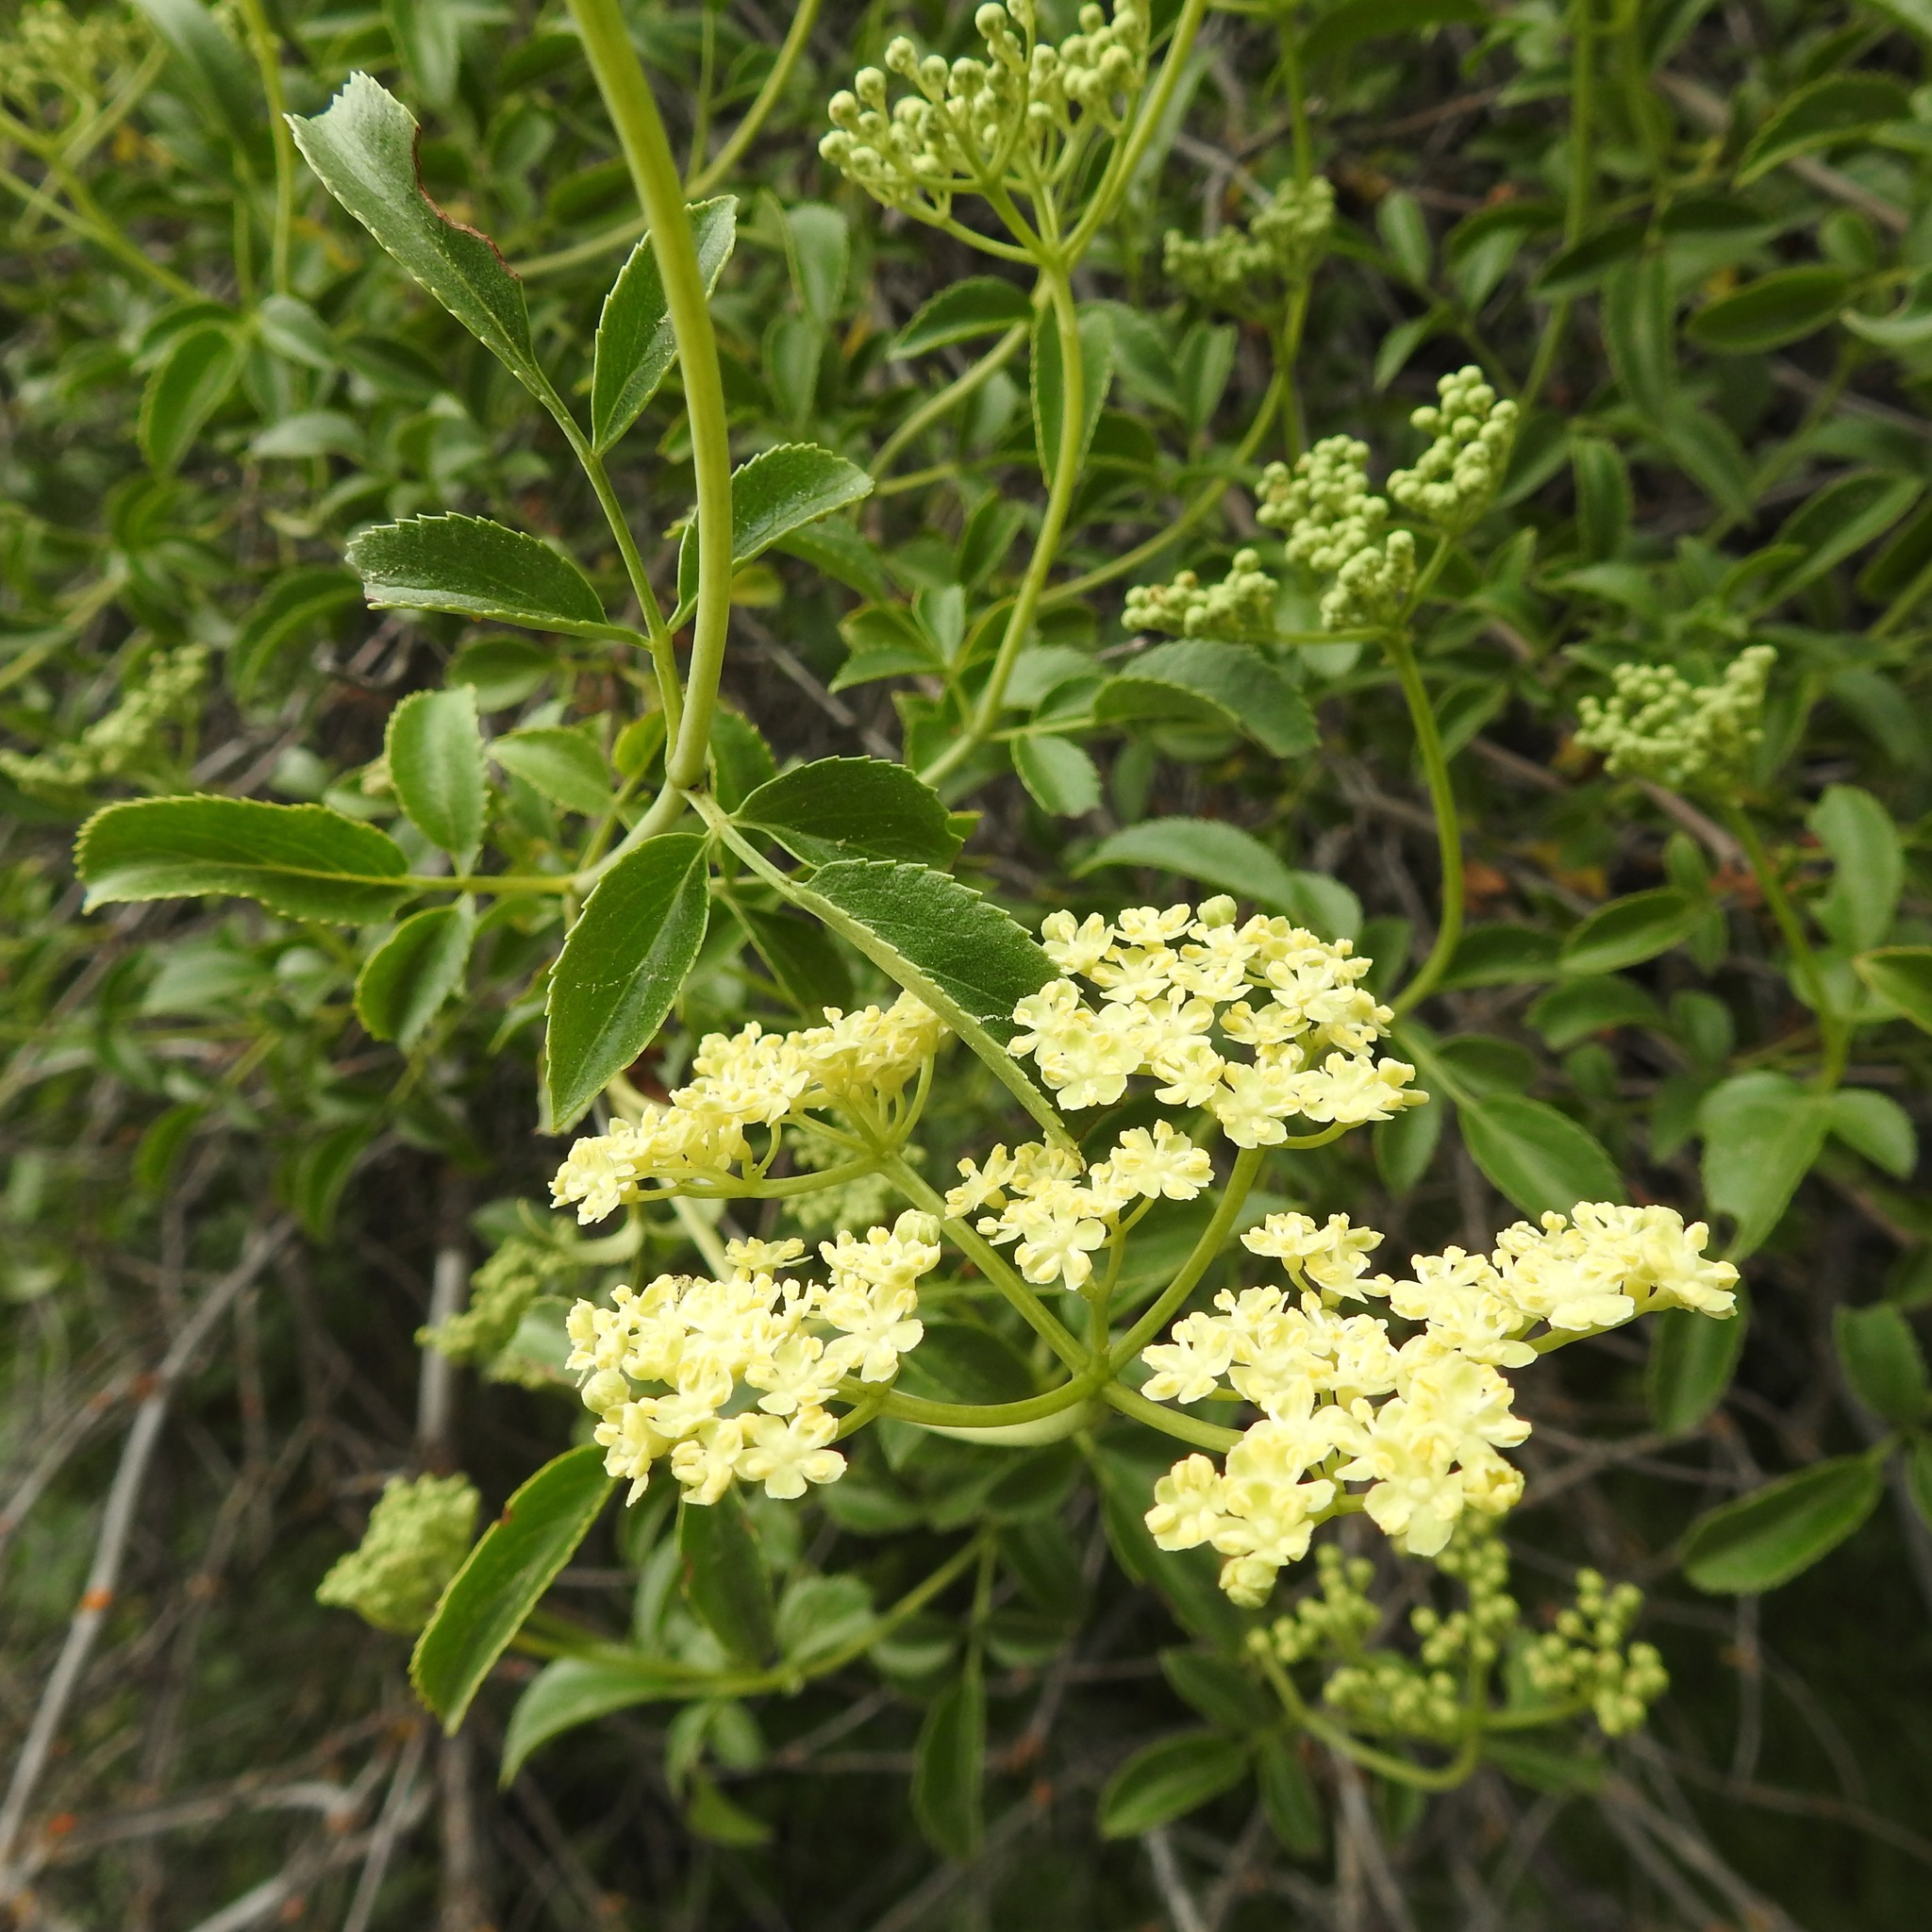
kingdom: Plantae
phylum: Tracheophyta
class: Magnoliopsida
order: Dipsacales
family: Viburnaceae
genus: Sambucus
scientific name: Sambucus cerulea
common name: Blue elder
